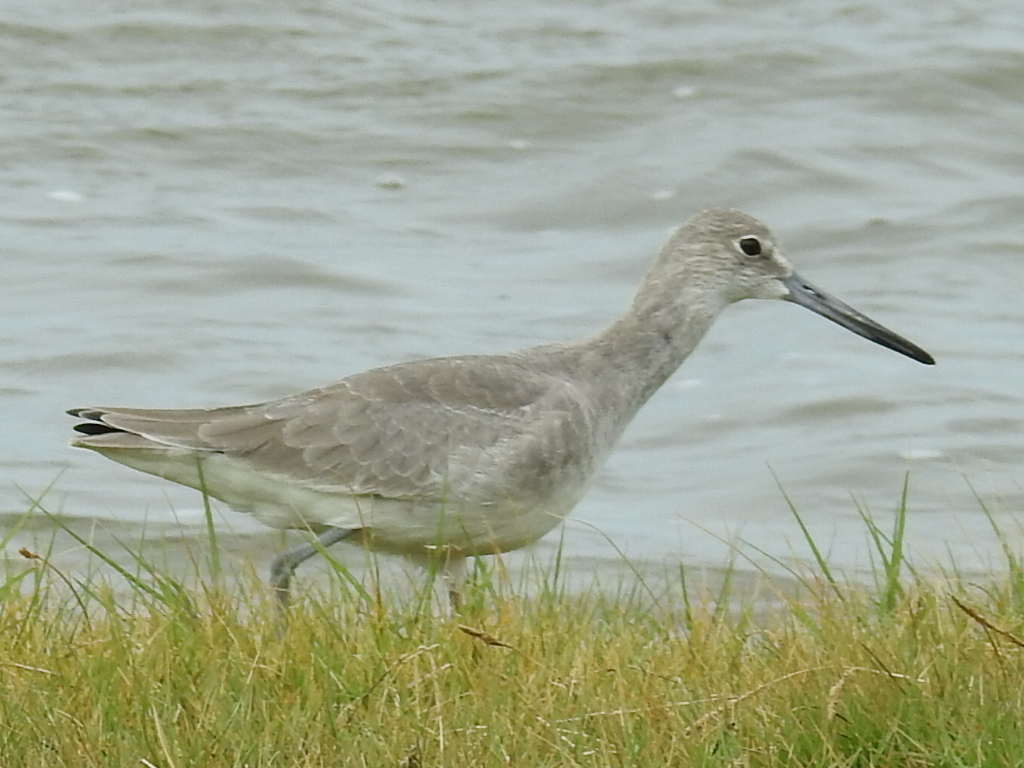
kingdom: Animalia
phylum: Chordata
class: Aves
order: Charadriiformes
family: Scolopacidae
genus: Tringa
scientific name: Tringa semipalmata
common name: Willet
